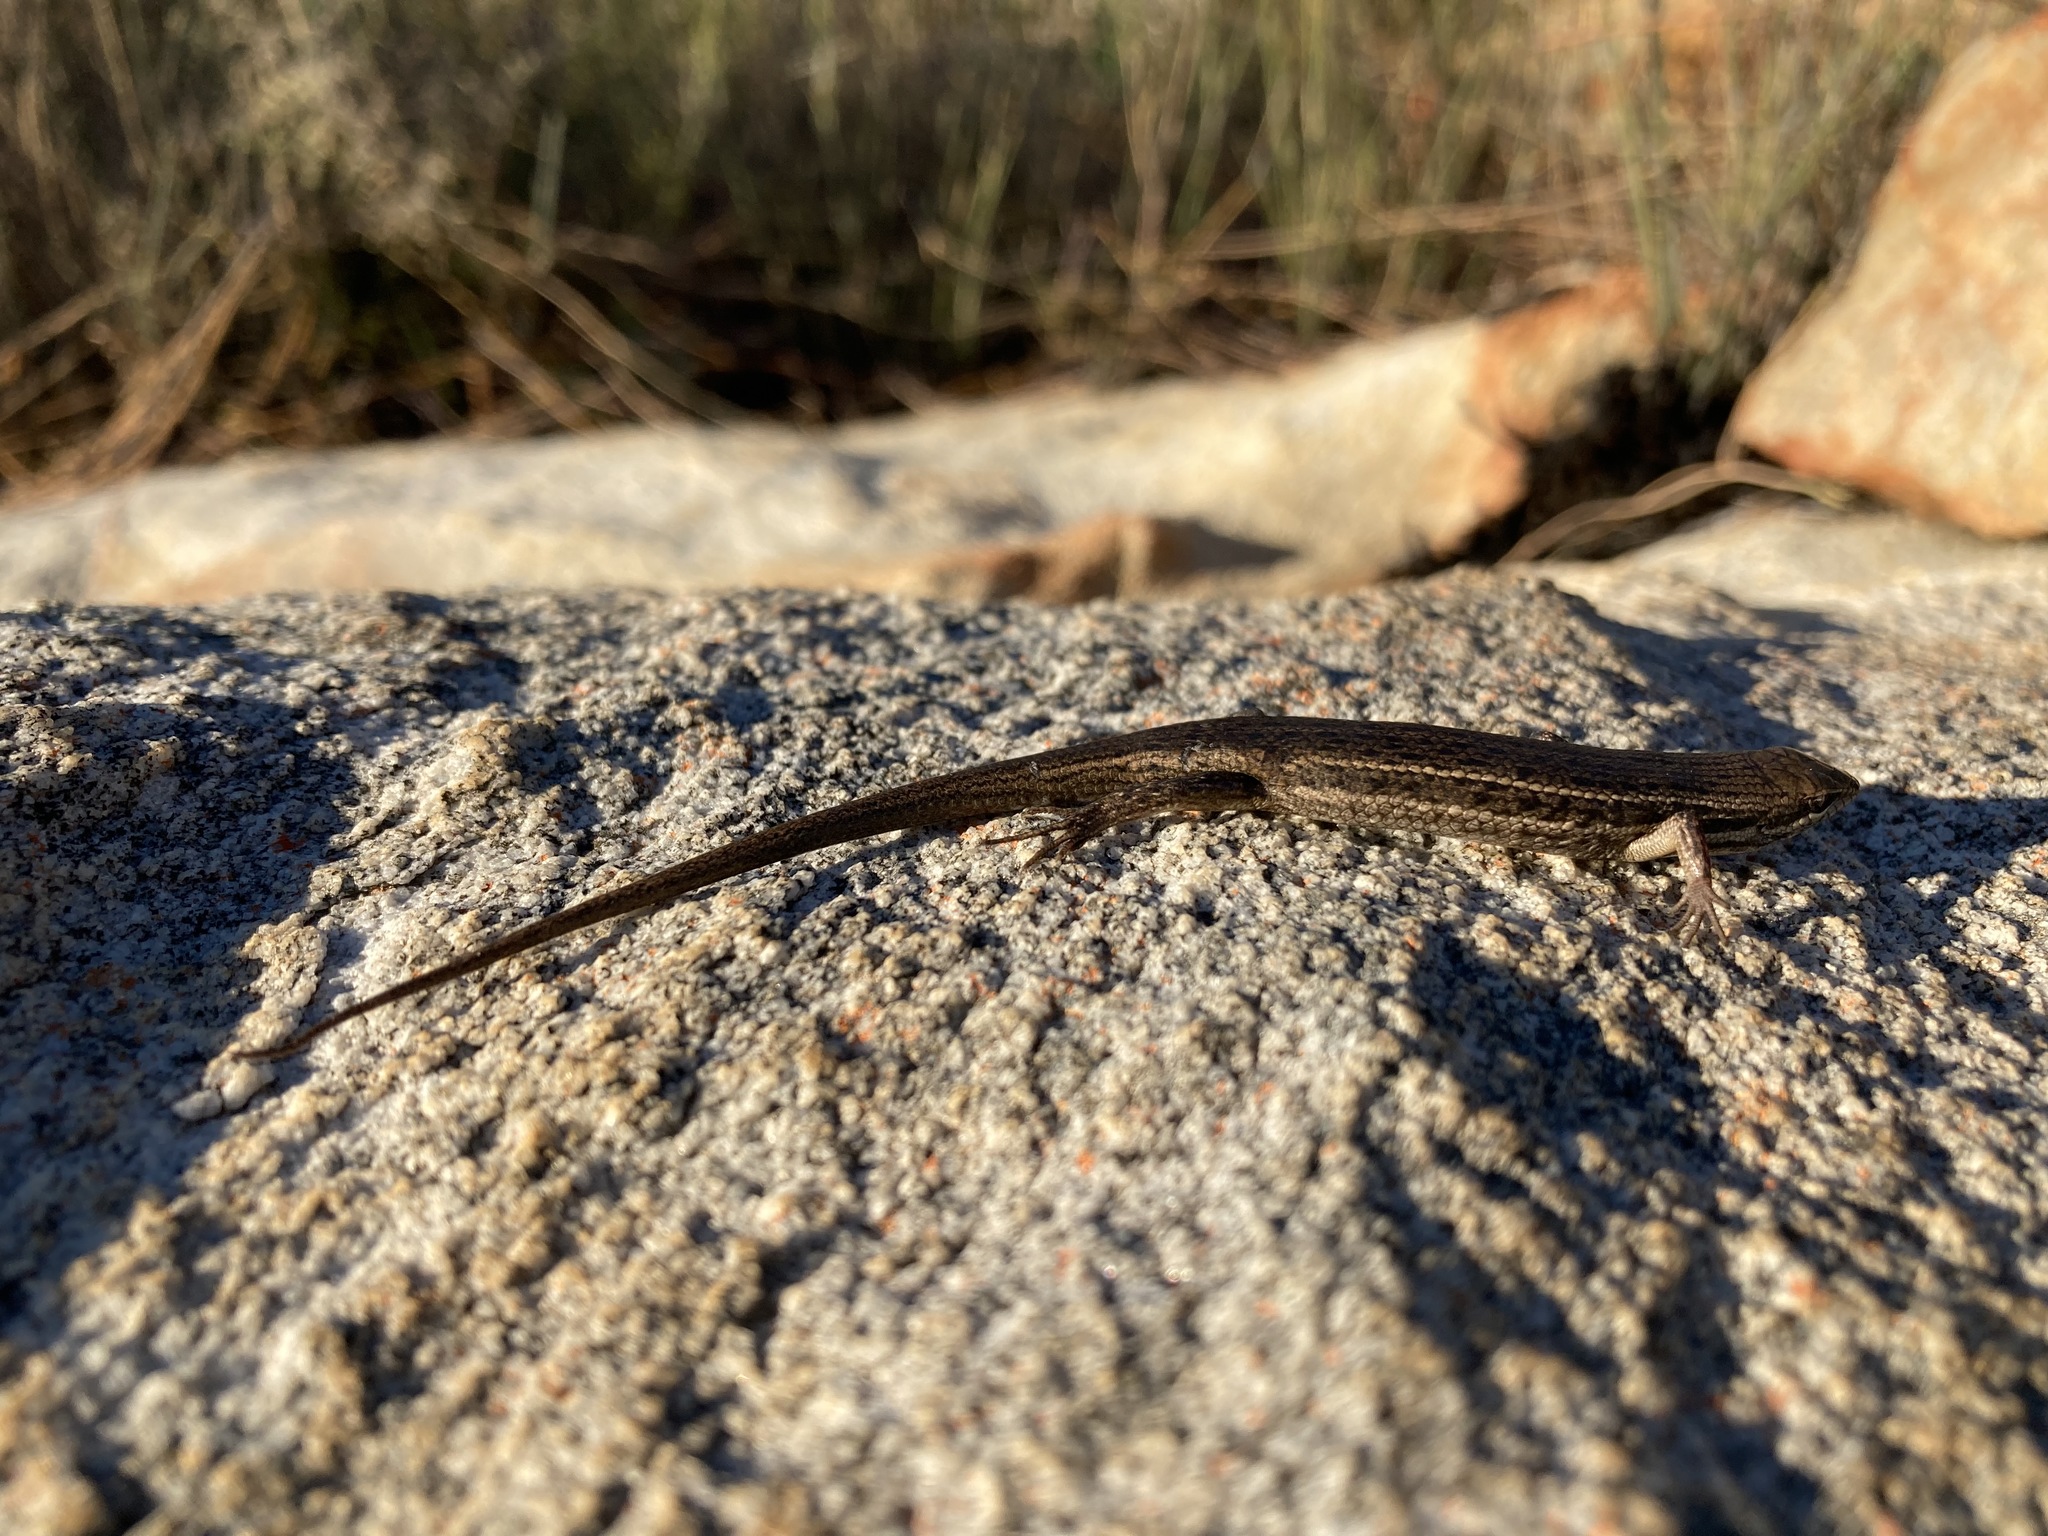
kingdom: Animalia
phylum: Chordata
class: Squamata
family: Scincidae
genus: Trachylepis
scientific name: Trachylepis variegata
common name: Variegated skink
